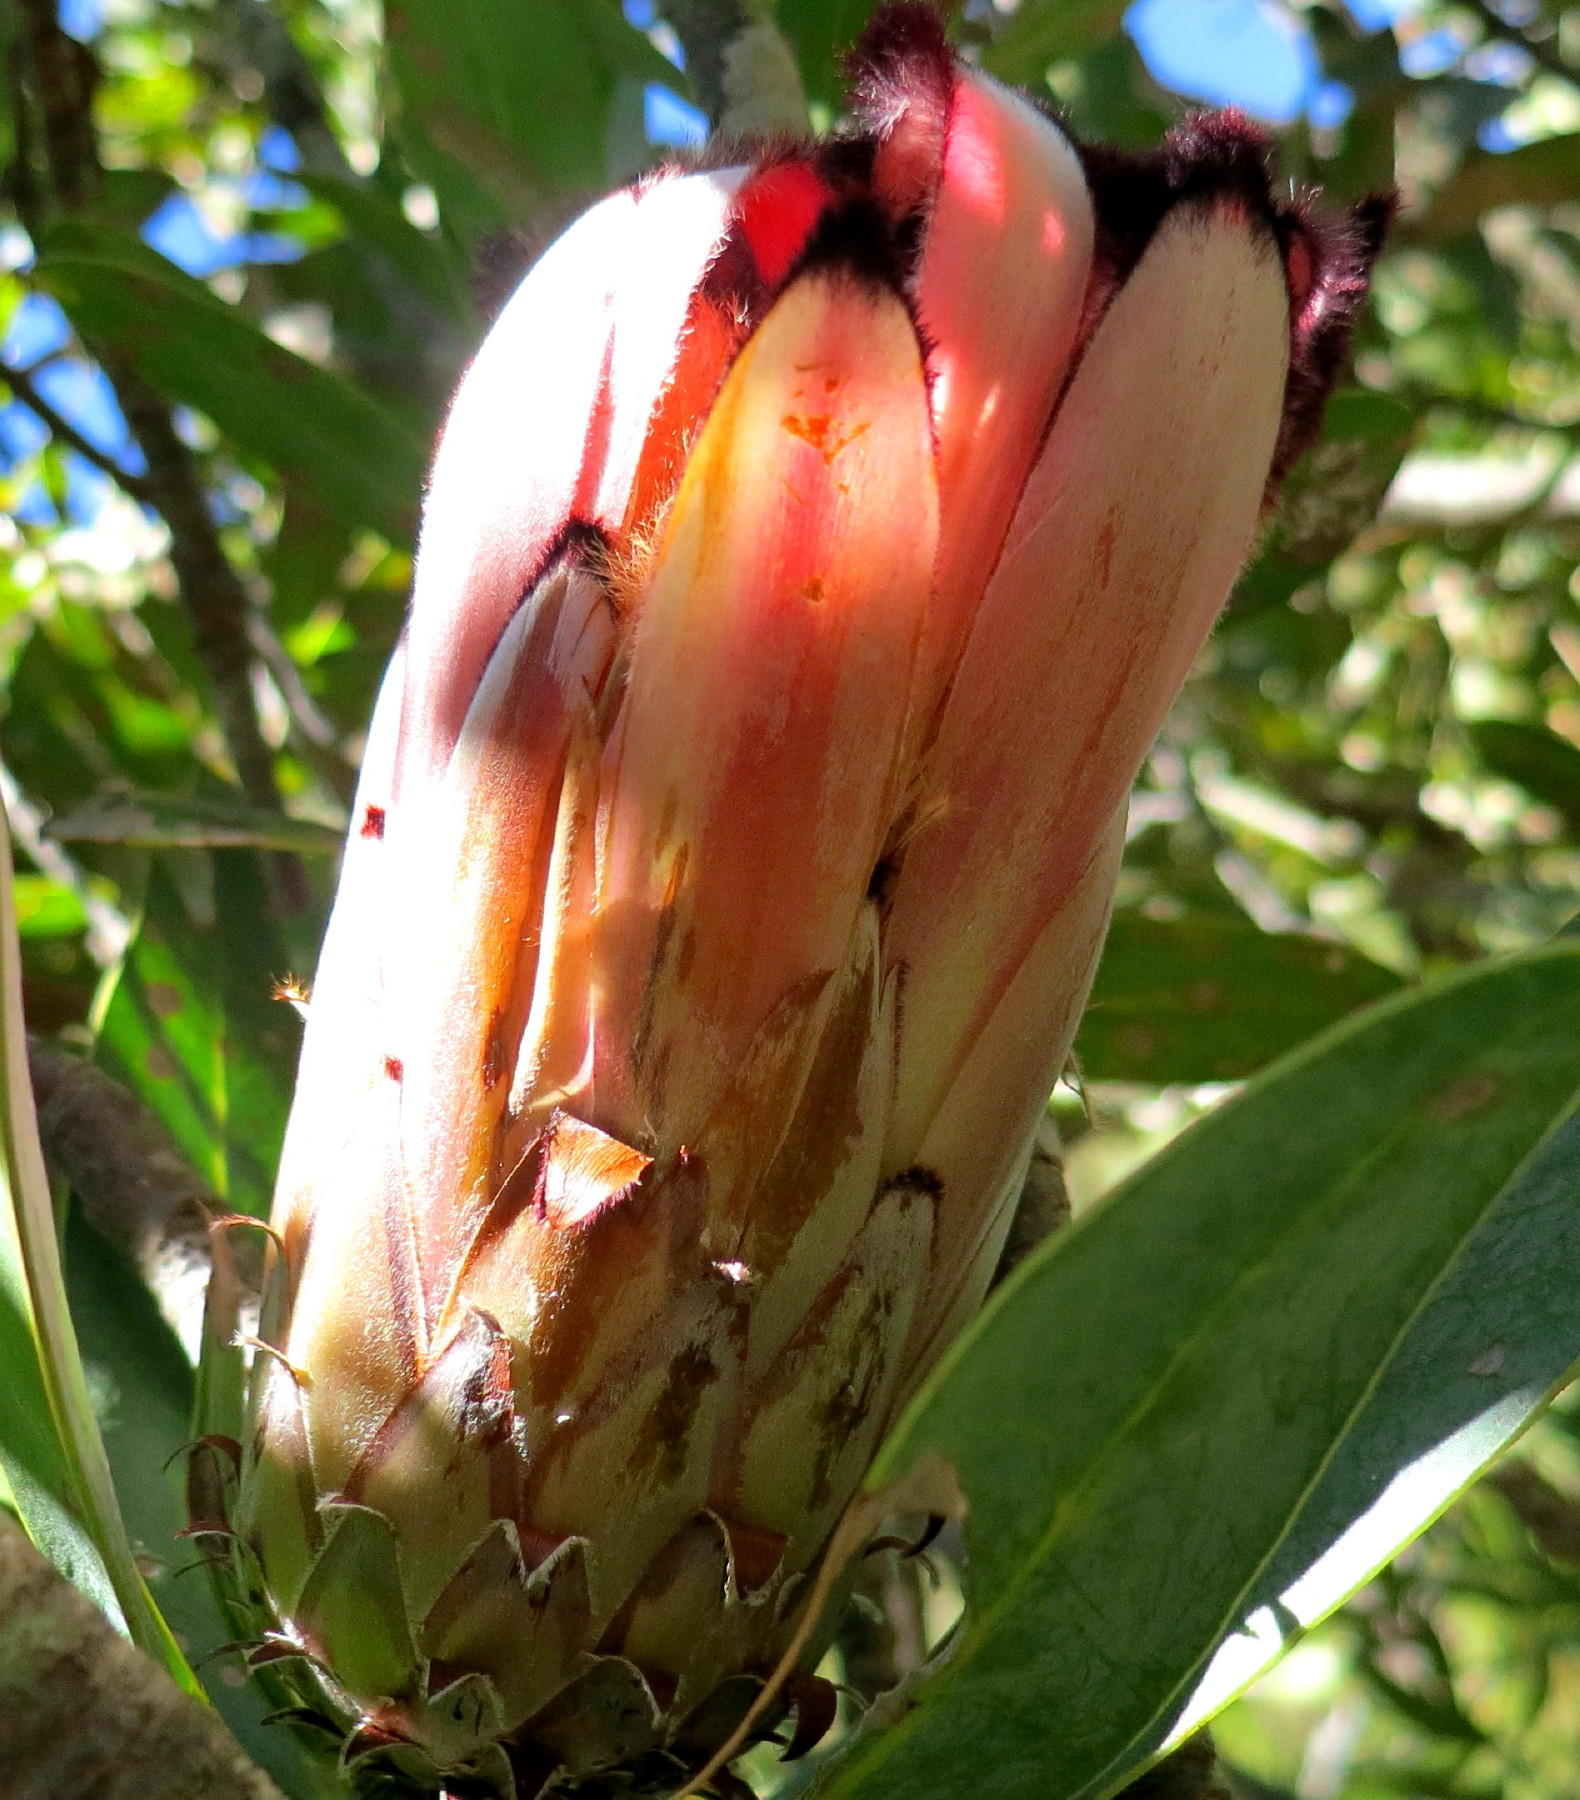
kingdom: Plantae
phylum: Tracheophyta
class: Magnoliopsida
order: Proteales
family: Proteaceae
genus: Protea
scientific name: Protea laurifolia
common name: Grey-leaf sugarbsh
